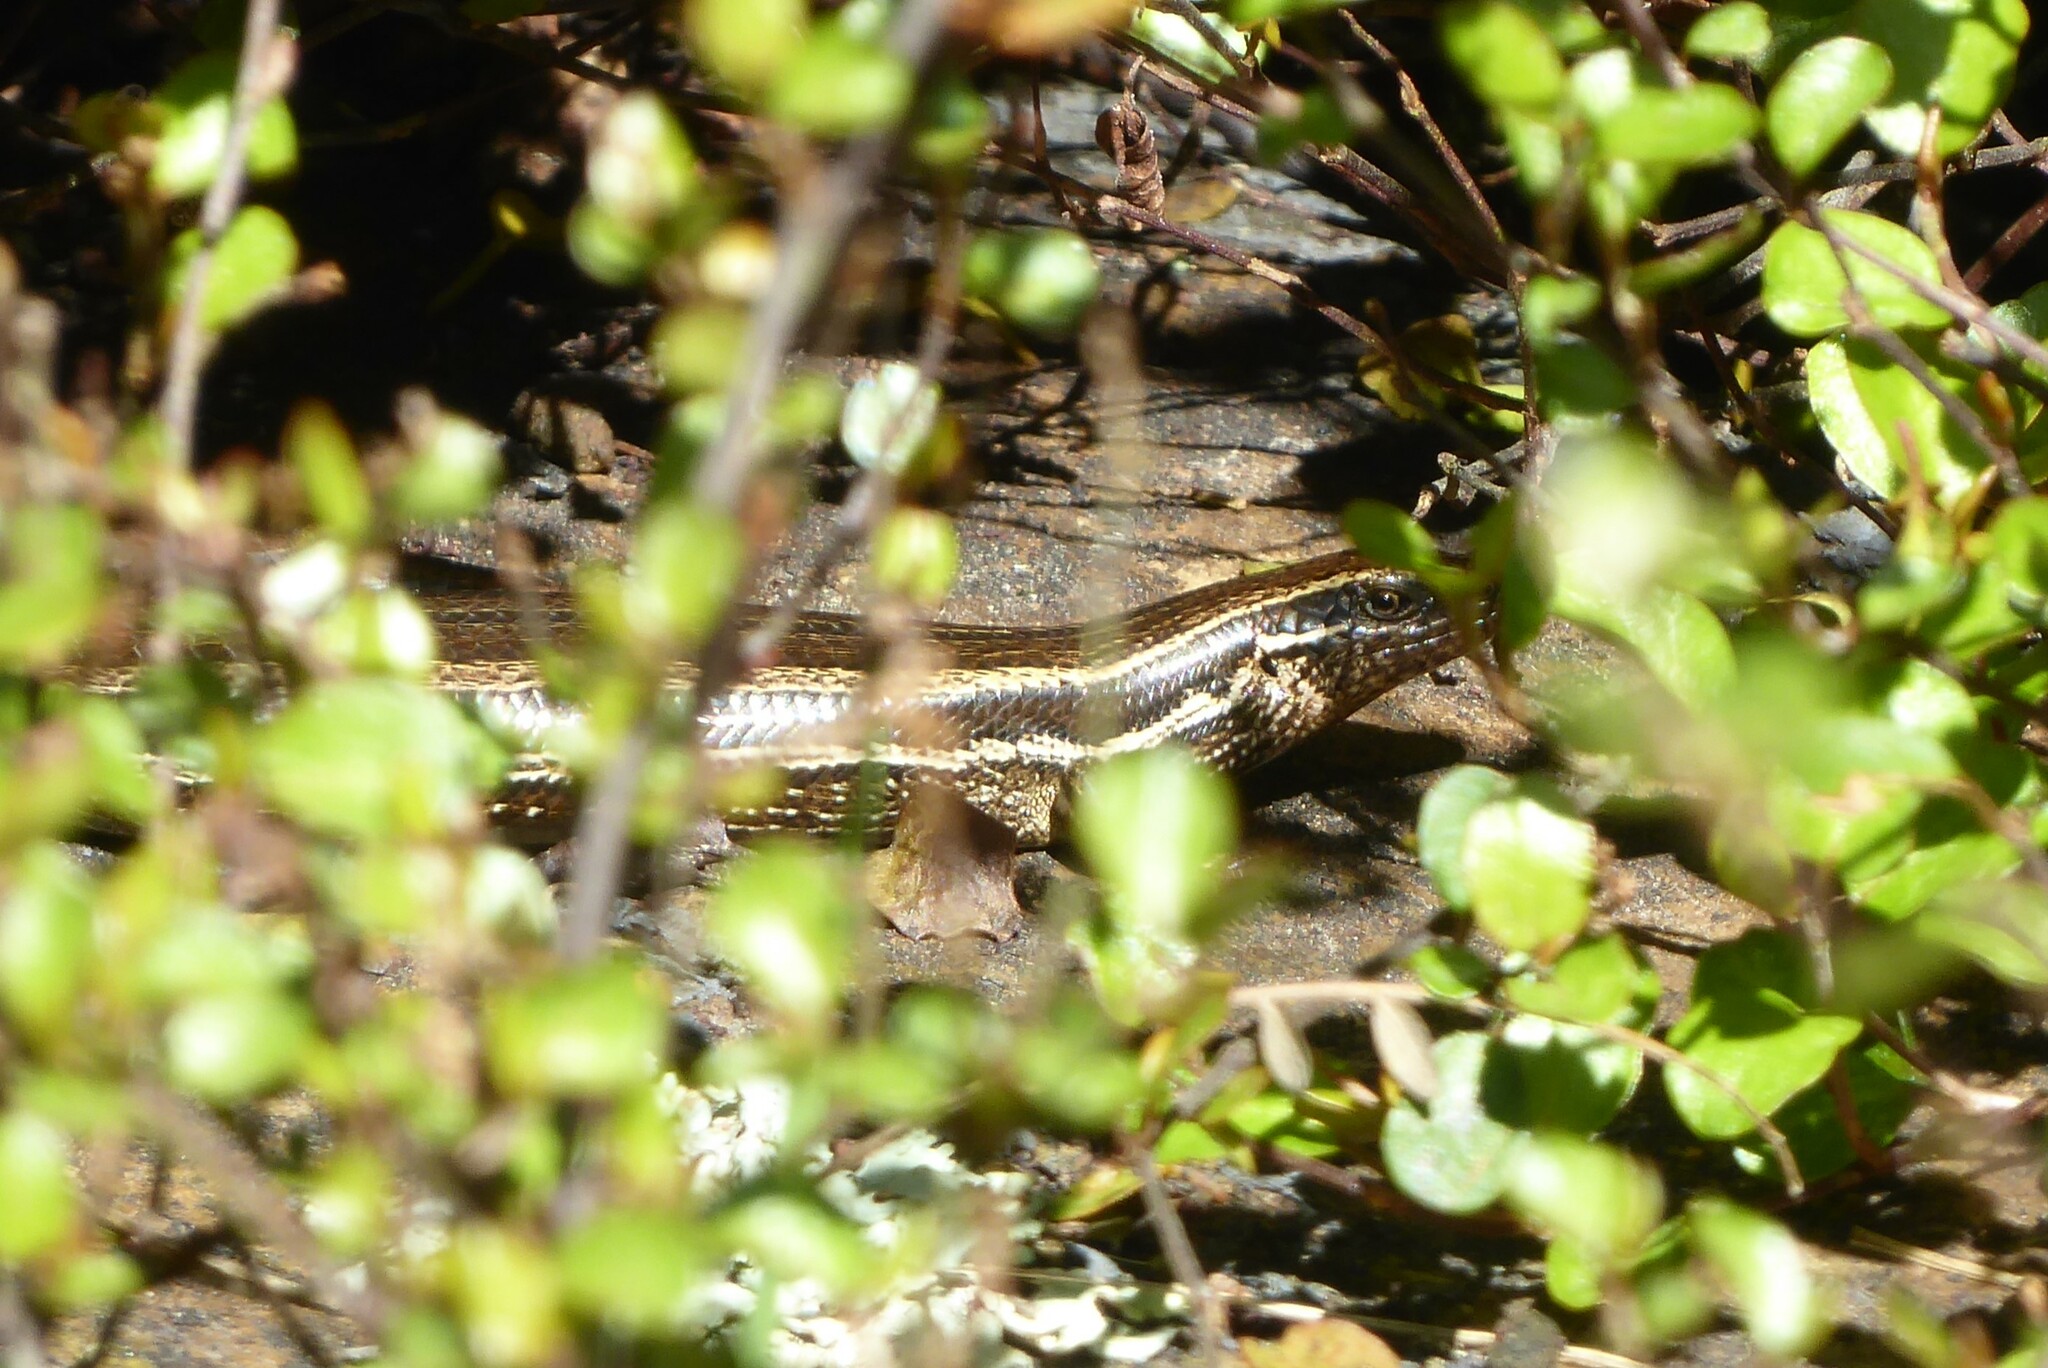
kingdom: Animalia
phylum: Chordata
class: Squamata
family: Scincidae
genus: Oligosoma
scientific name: Oligosoma polychroma
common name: Common new zealand skink
